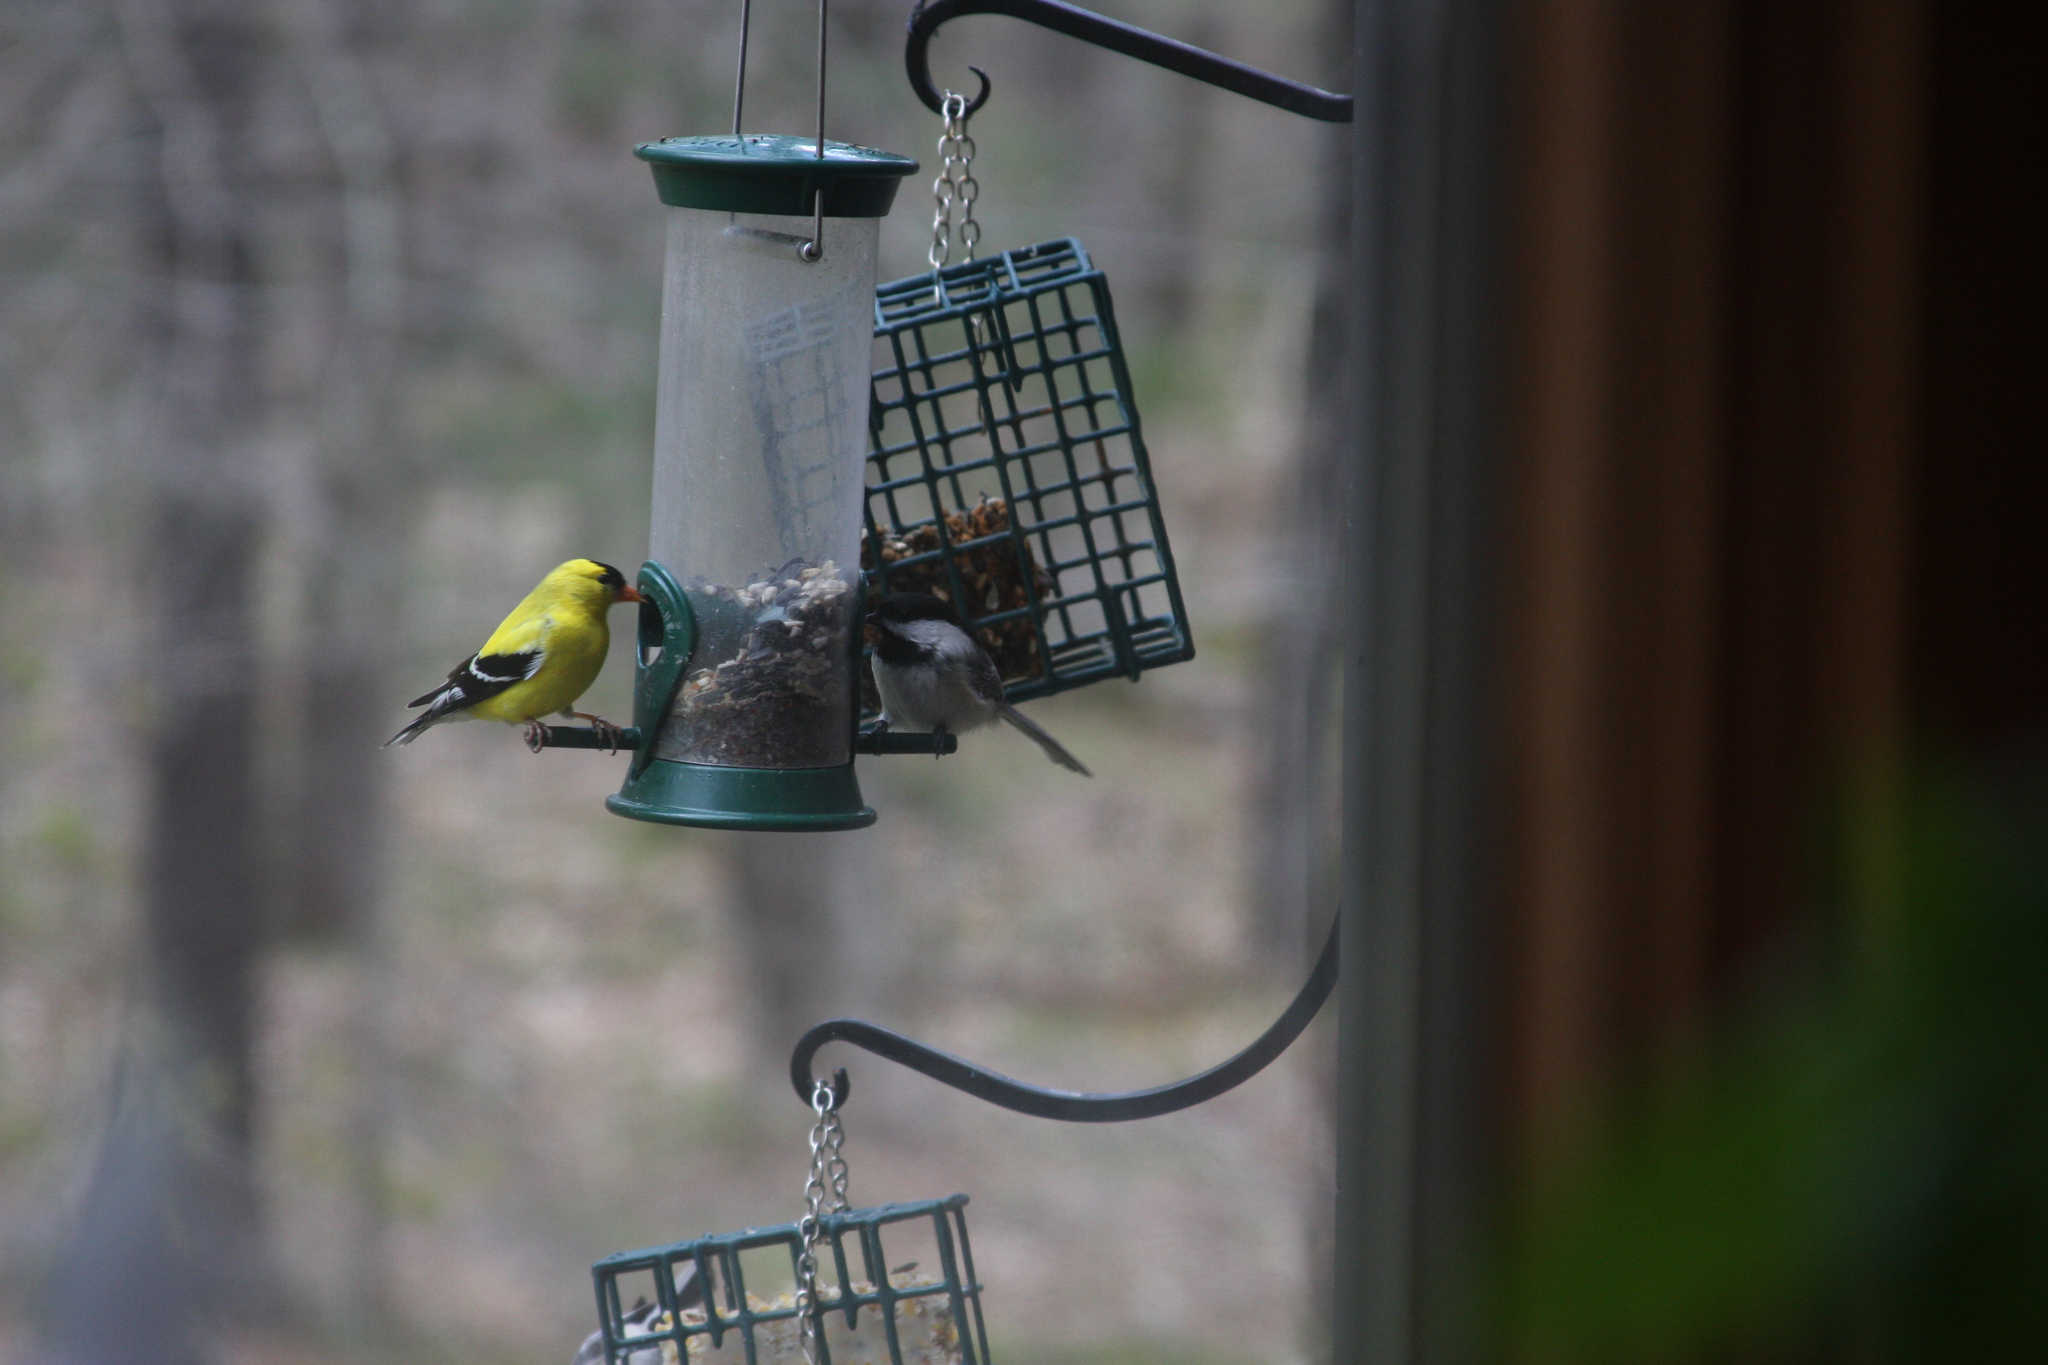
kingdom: Animalia
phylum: Chordata
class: Aves
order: Passeriformes
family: Fringillidae
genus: Spinus
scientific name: Spinus tristis
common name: American goldfinch
